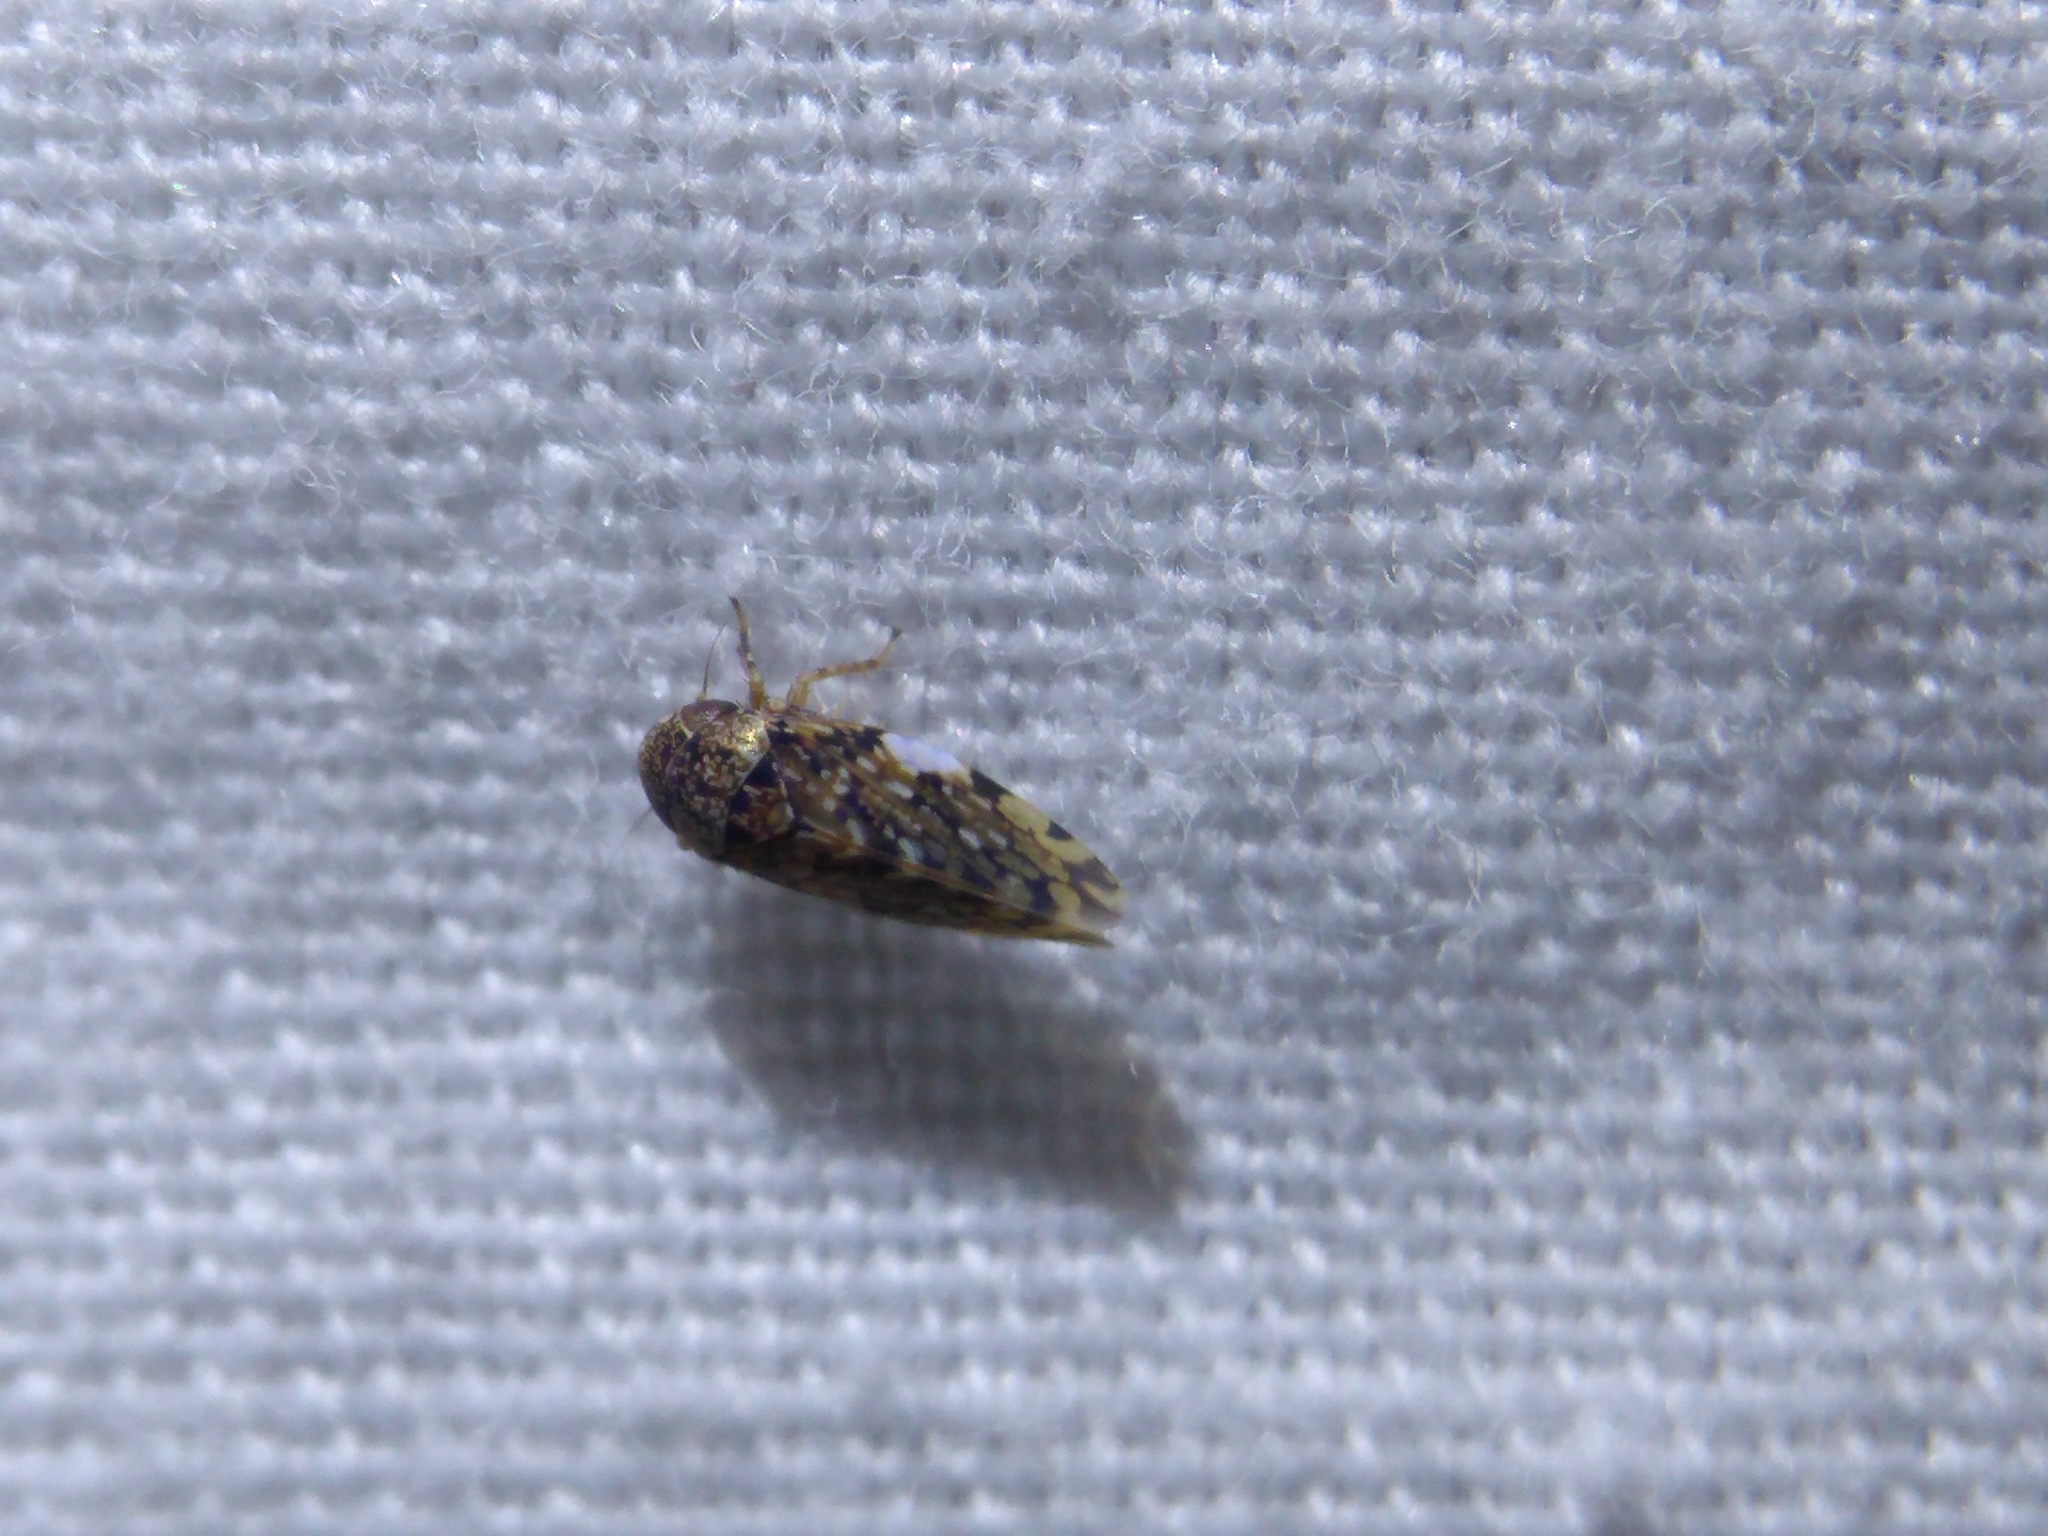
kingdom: Animalia
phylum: Arthropoda
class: Insecta
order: Hemiptera
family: Cicadellidae
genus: Xestocephalus
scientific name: Xestocephalus tessellatus
